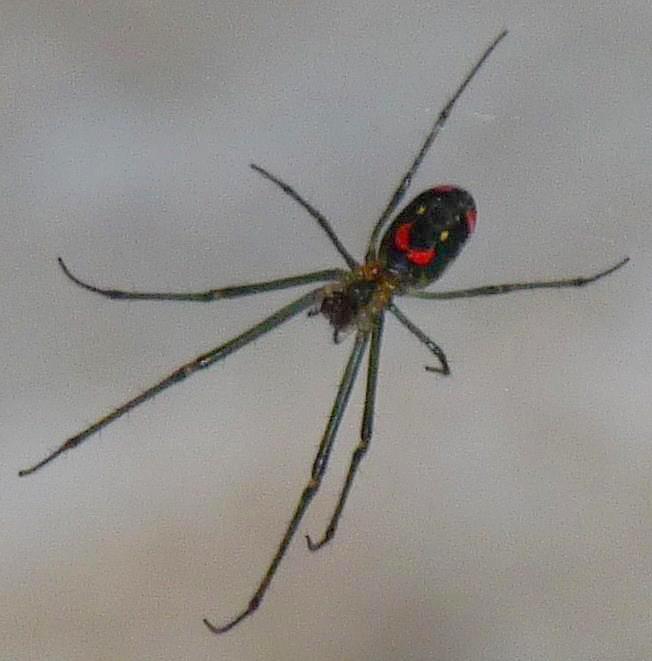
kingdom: Animalia
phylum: Arthropoda
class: Arachnida
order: Araneae
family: Tetragnathidae
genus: Leucauge
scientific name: Leucauge argyrobapta
